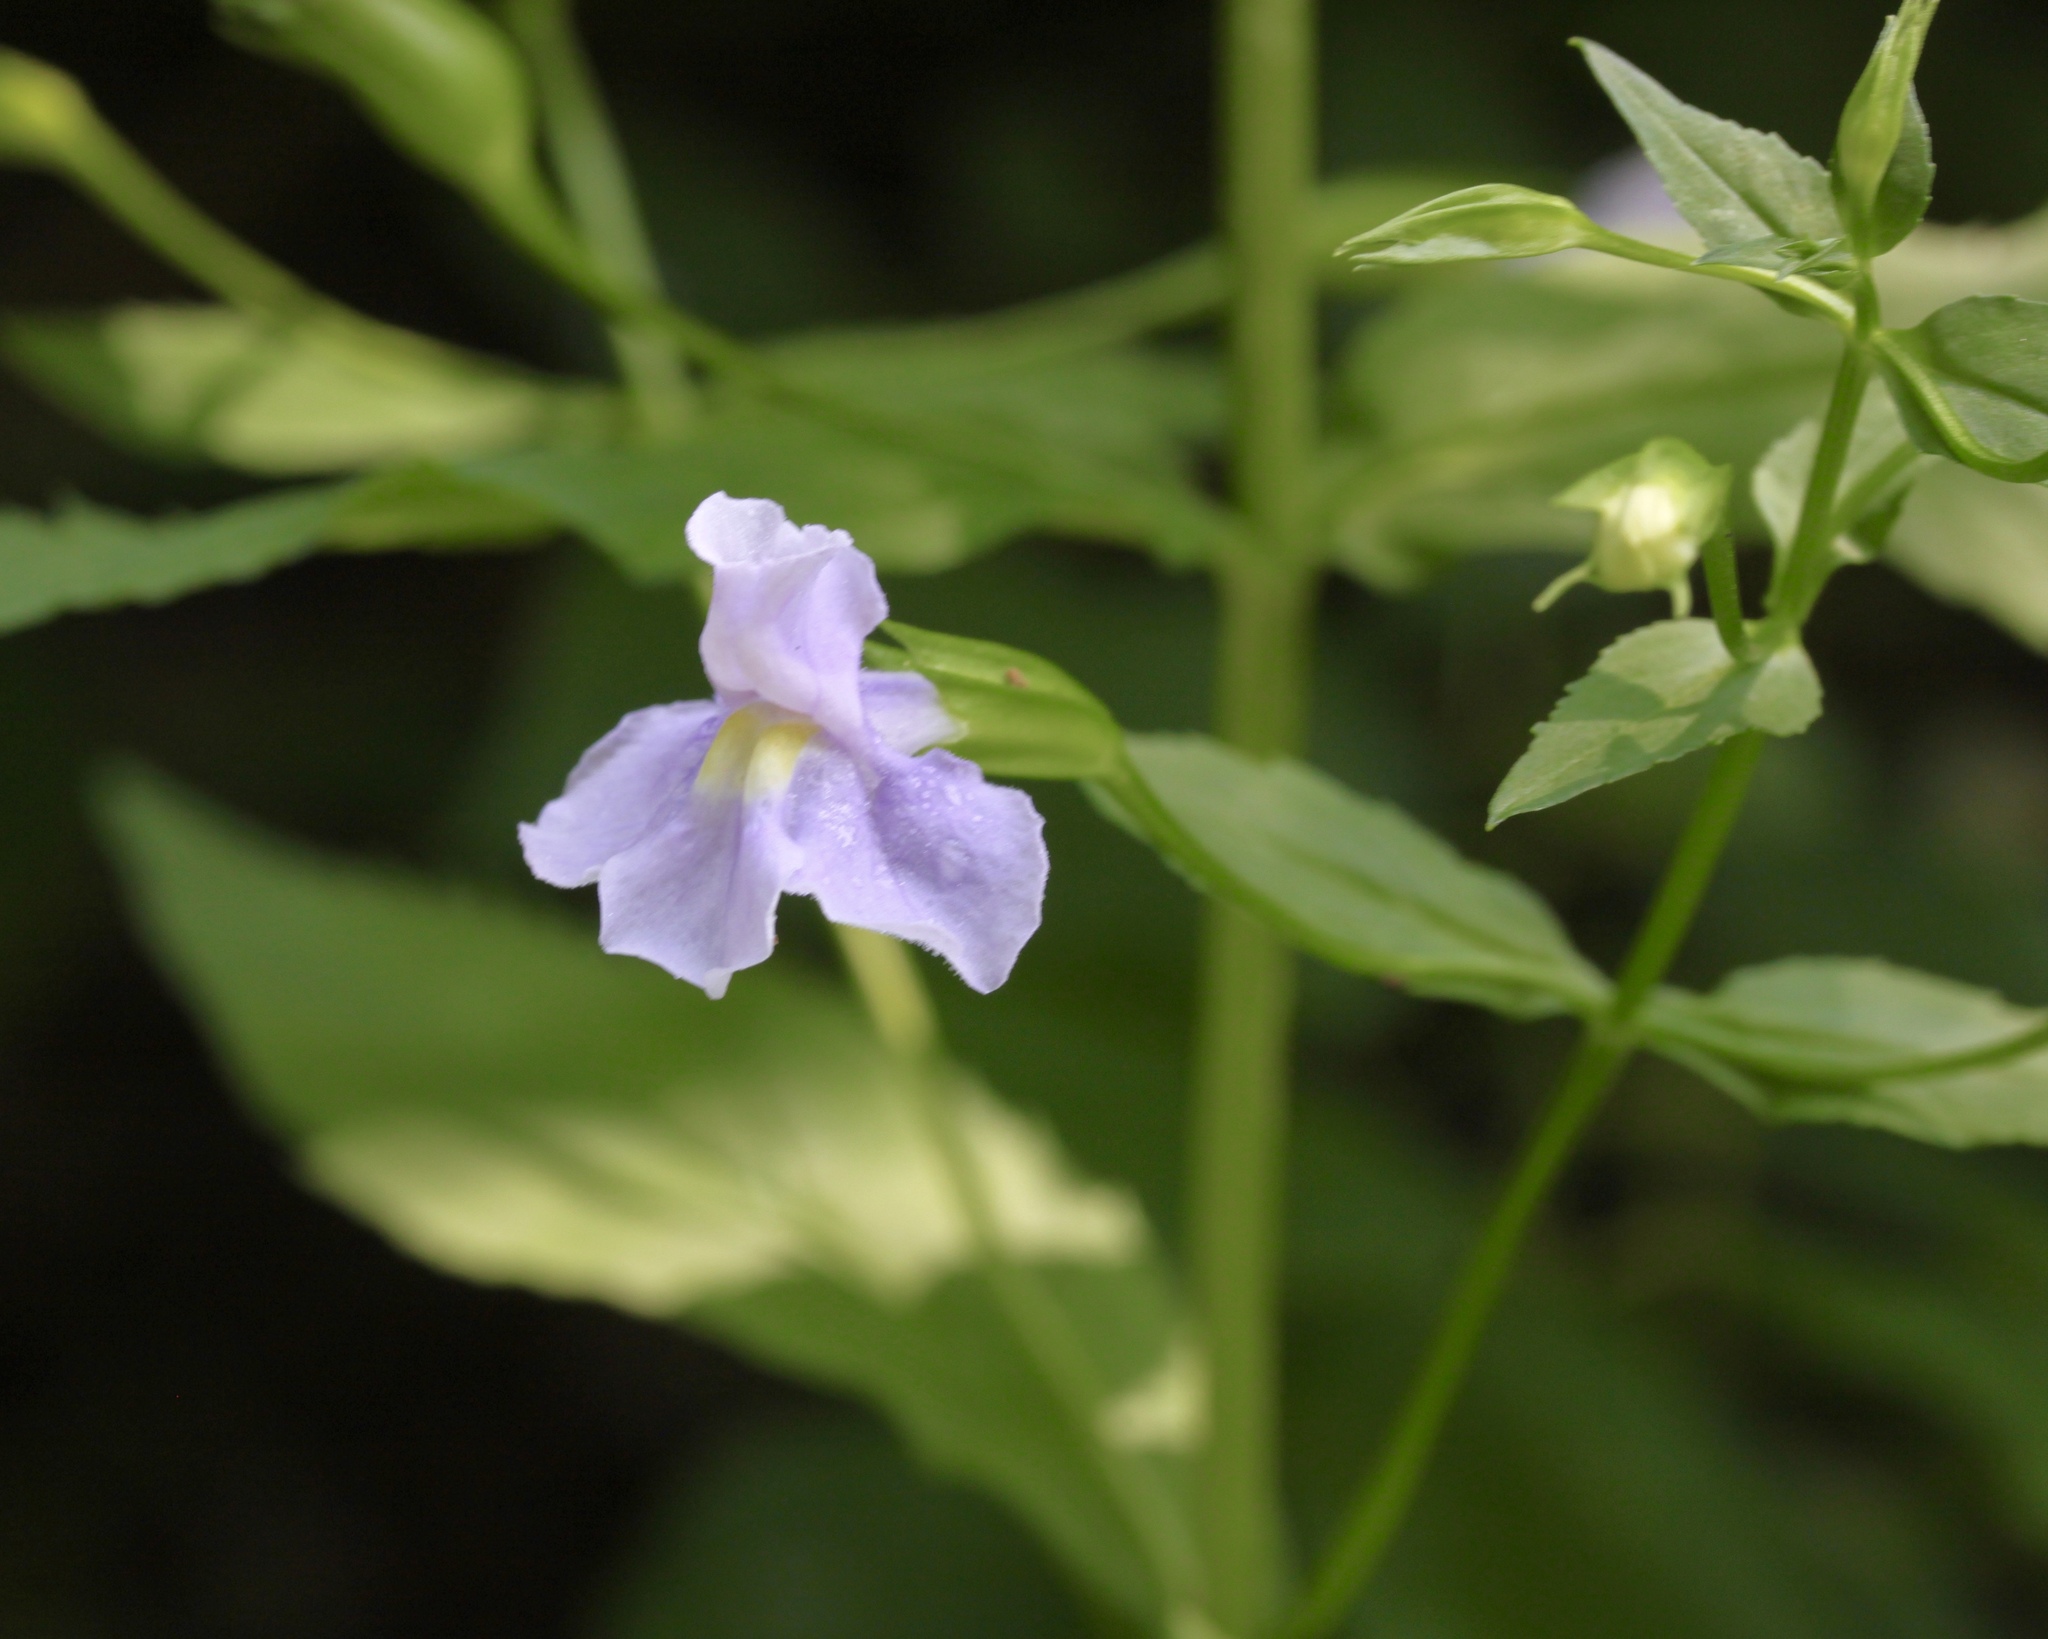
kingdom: Plantae
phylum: Tracheophyta
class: Magnoliopsida
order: Lamiales
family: Phrymaceae
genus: Mimulus
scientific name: Mimulus ringens
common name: Allegheny monkeyflower
